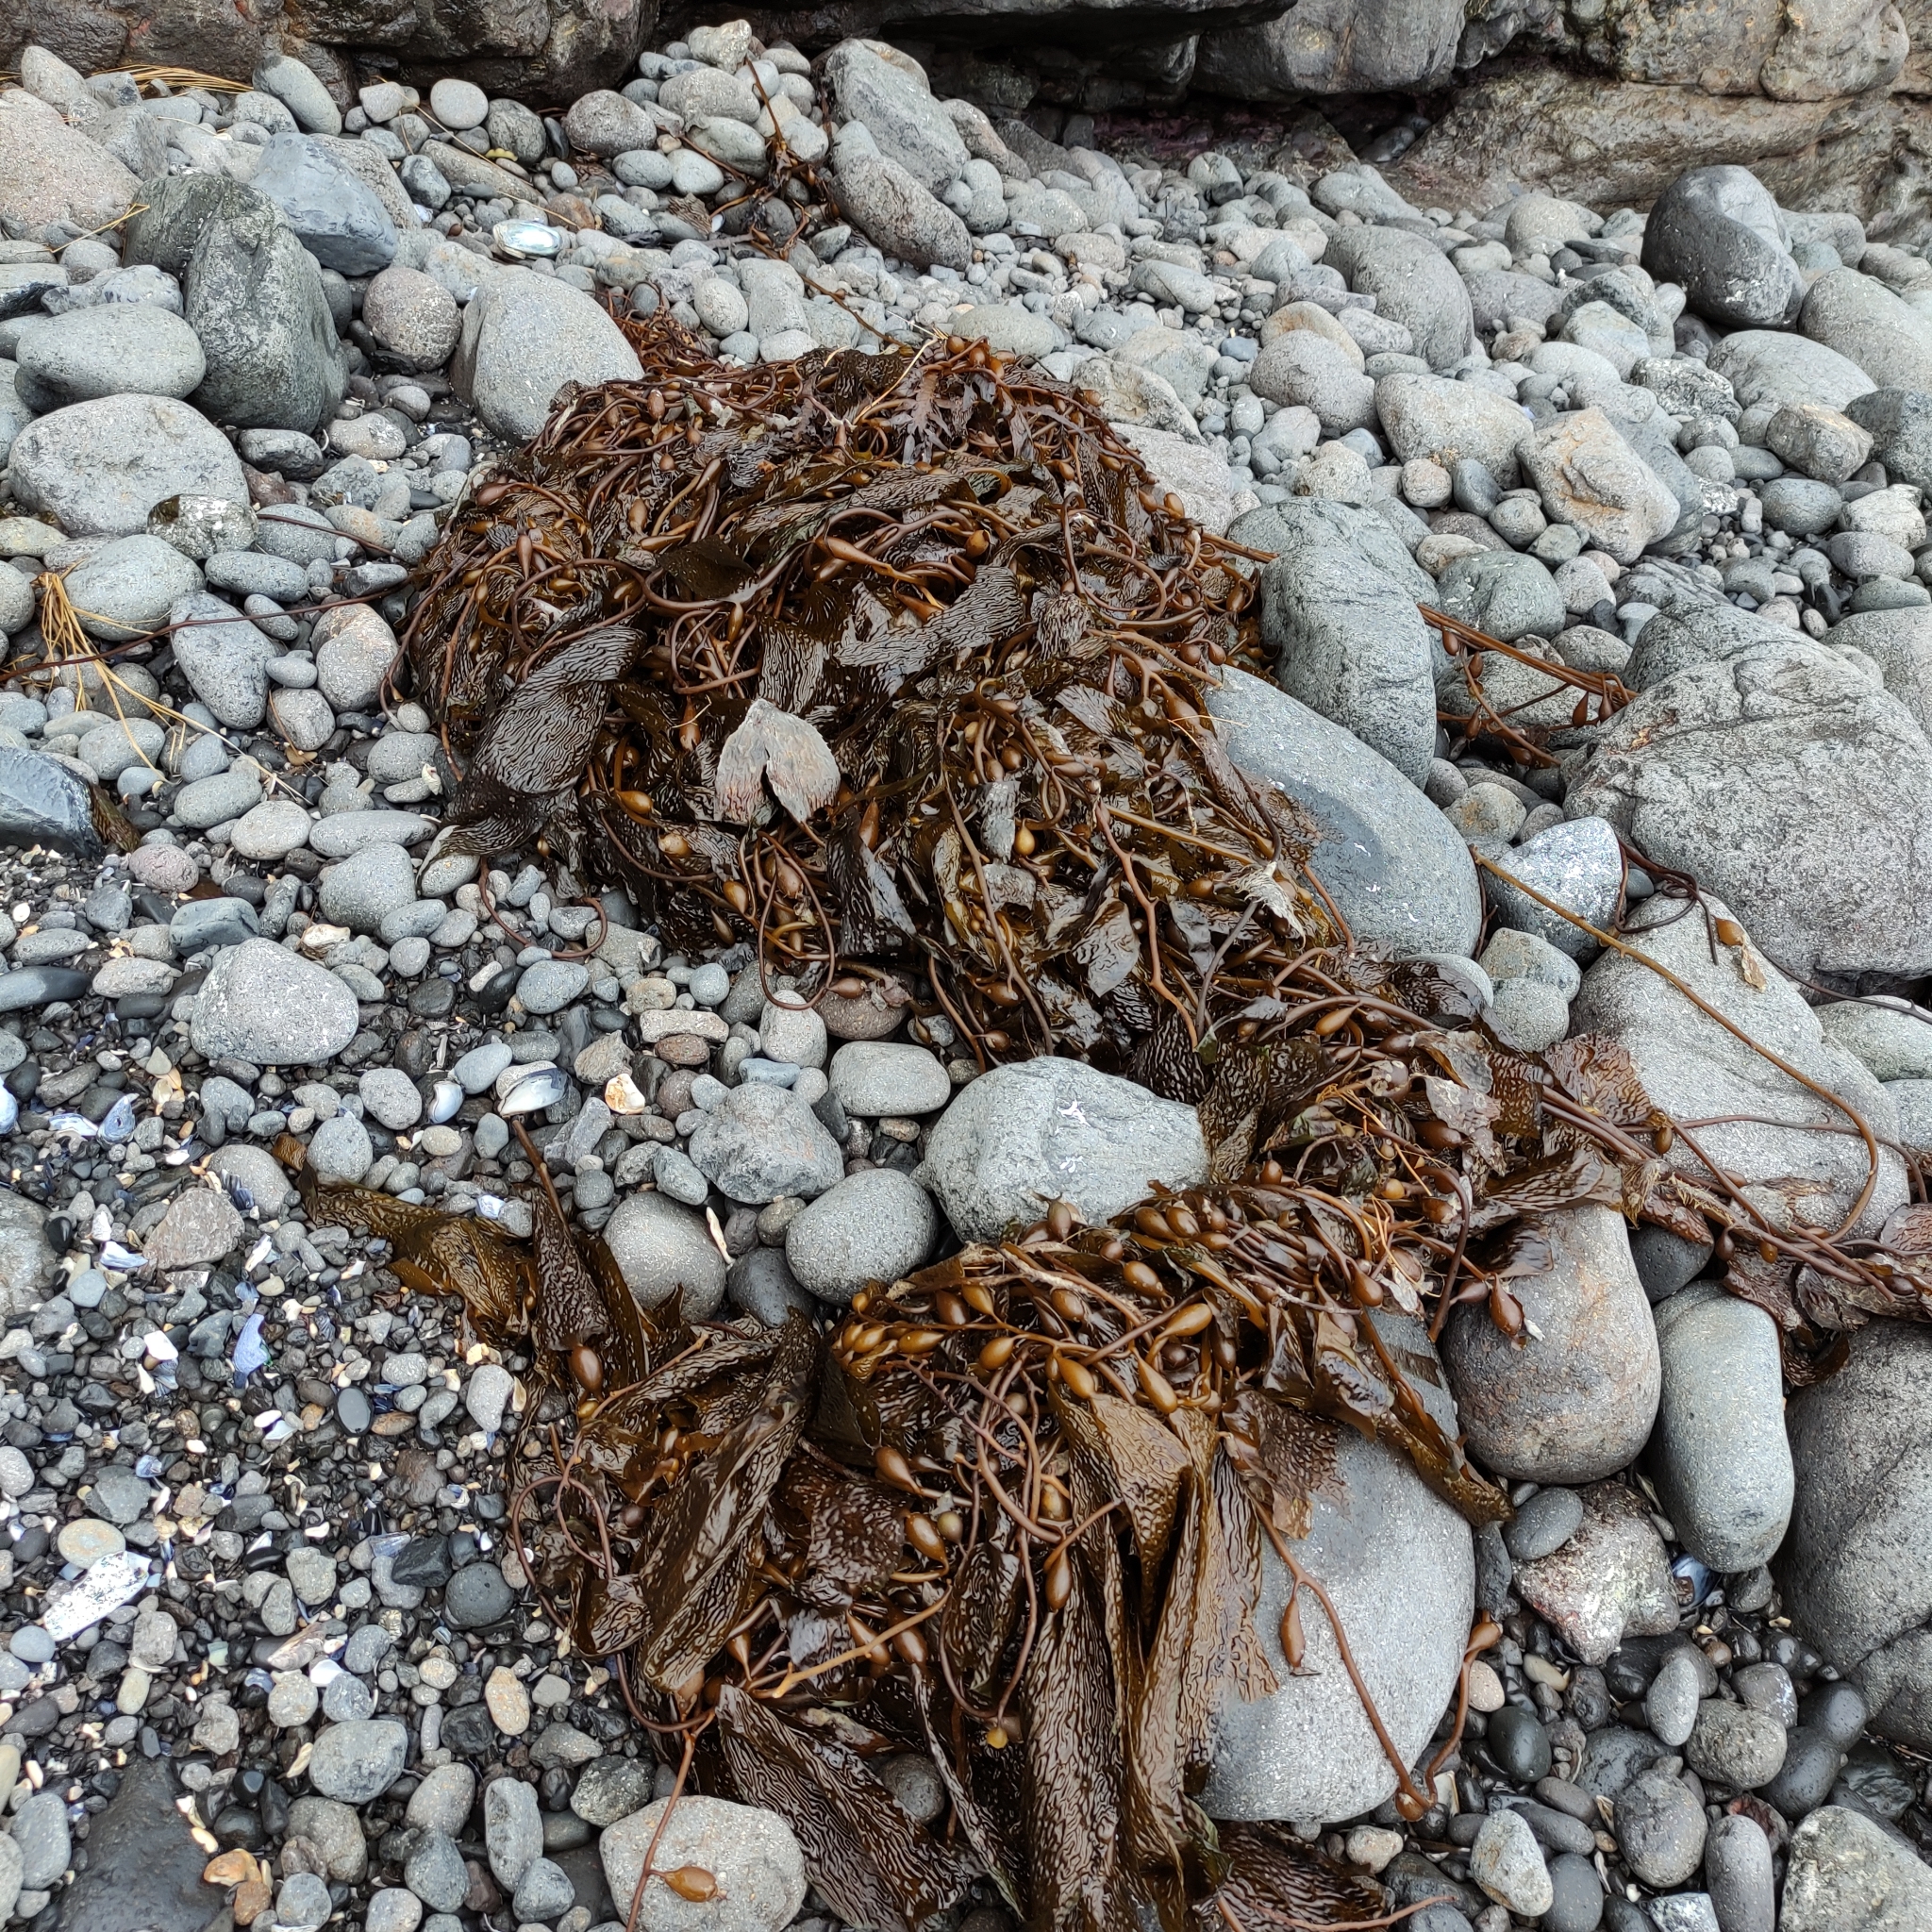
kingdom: Chromista
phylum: Ochrophyta
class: Phaeophyceae
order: Laminariales
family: Laminariaceae
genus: Macrocystis
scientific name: Macrocystis pyrifera
